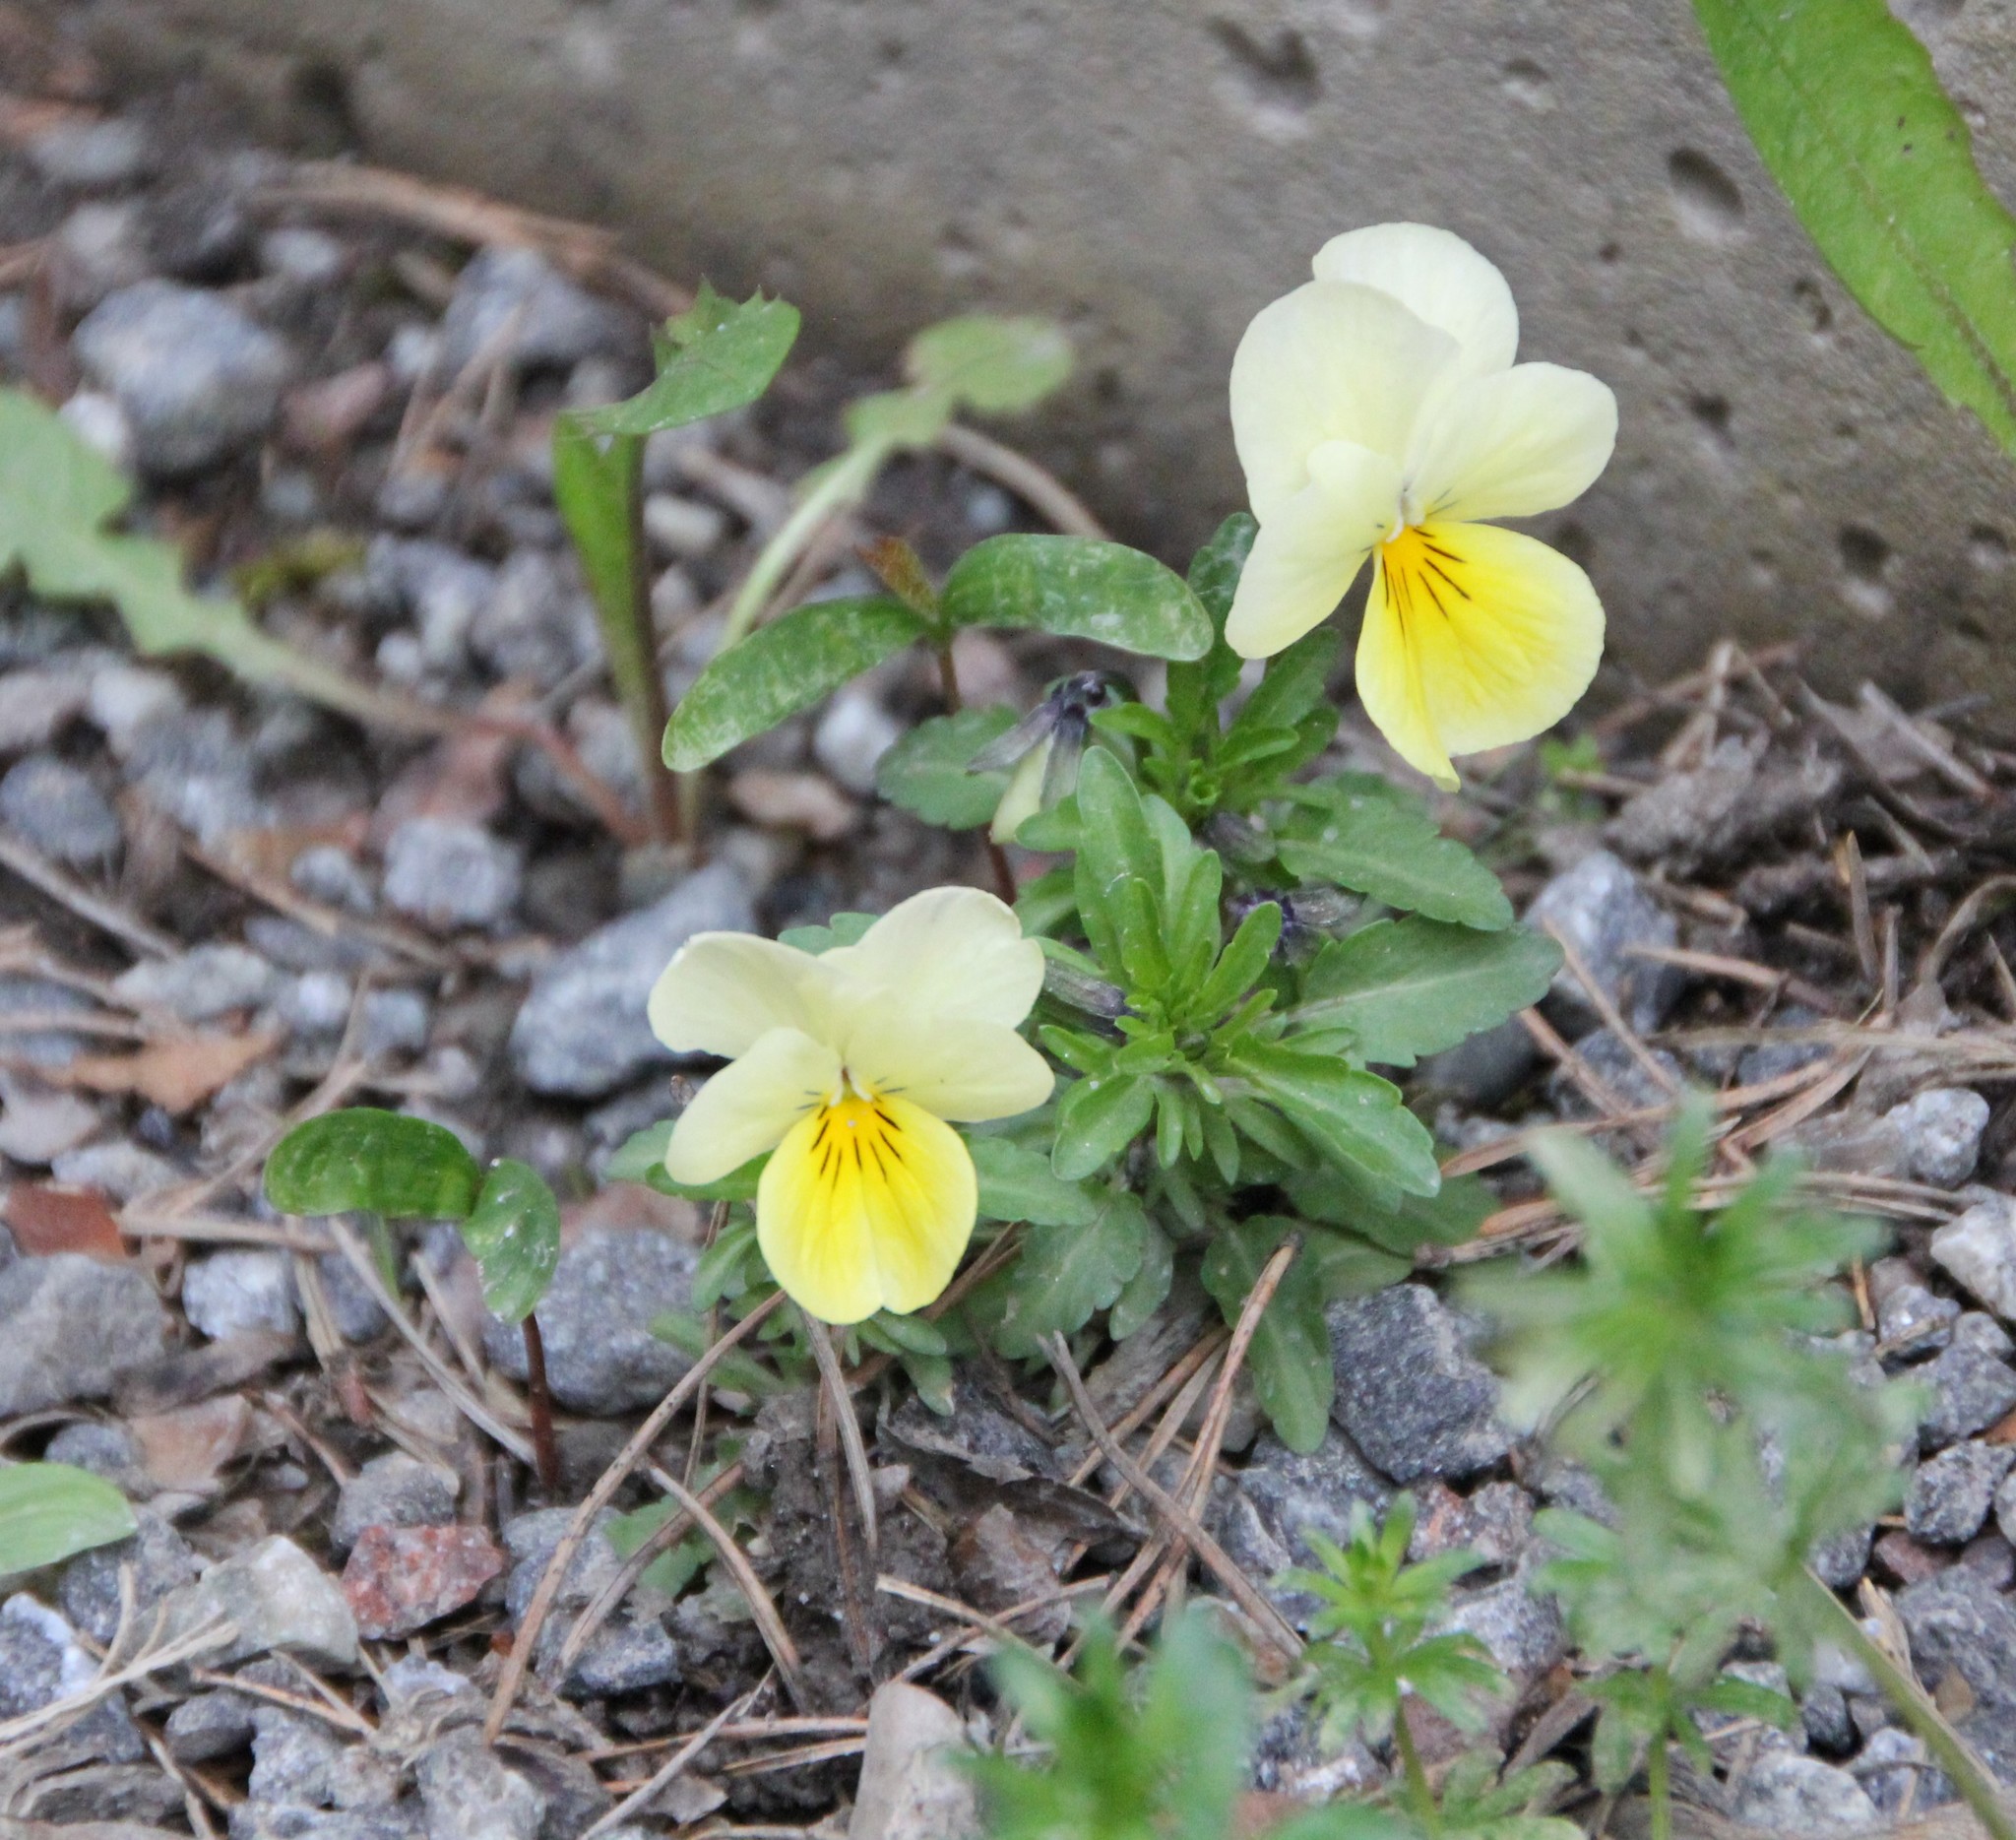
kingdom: Plantae
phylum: Tracheophyta
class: Magnoliopsida
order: Malpighiales
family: Violaceae
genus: Viola
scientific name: Viola wittrockiana
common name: Garden pansy
